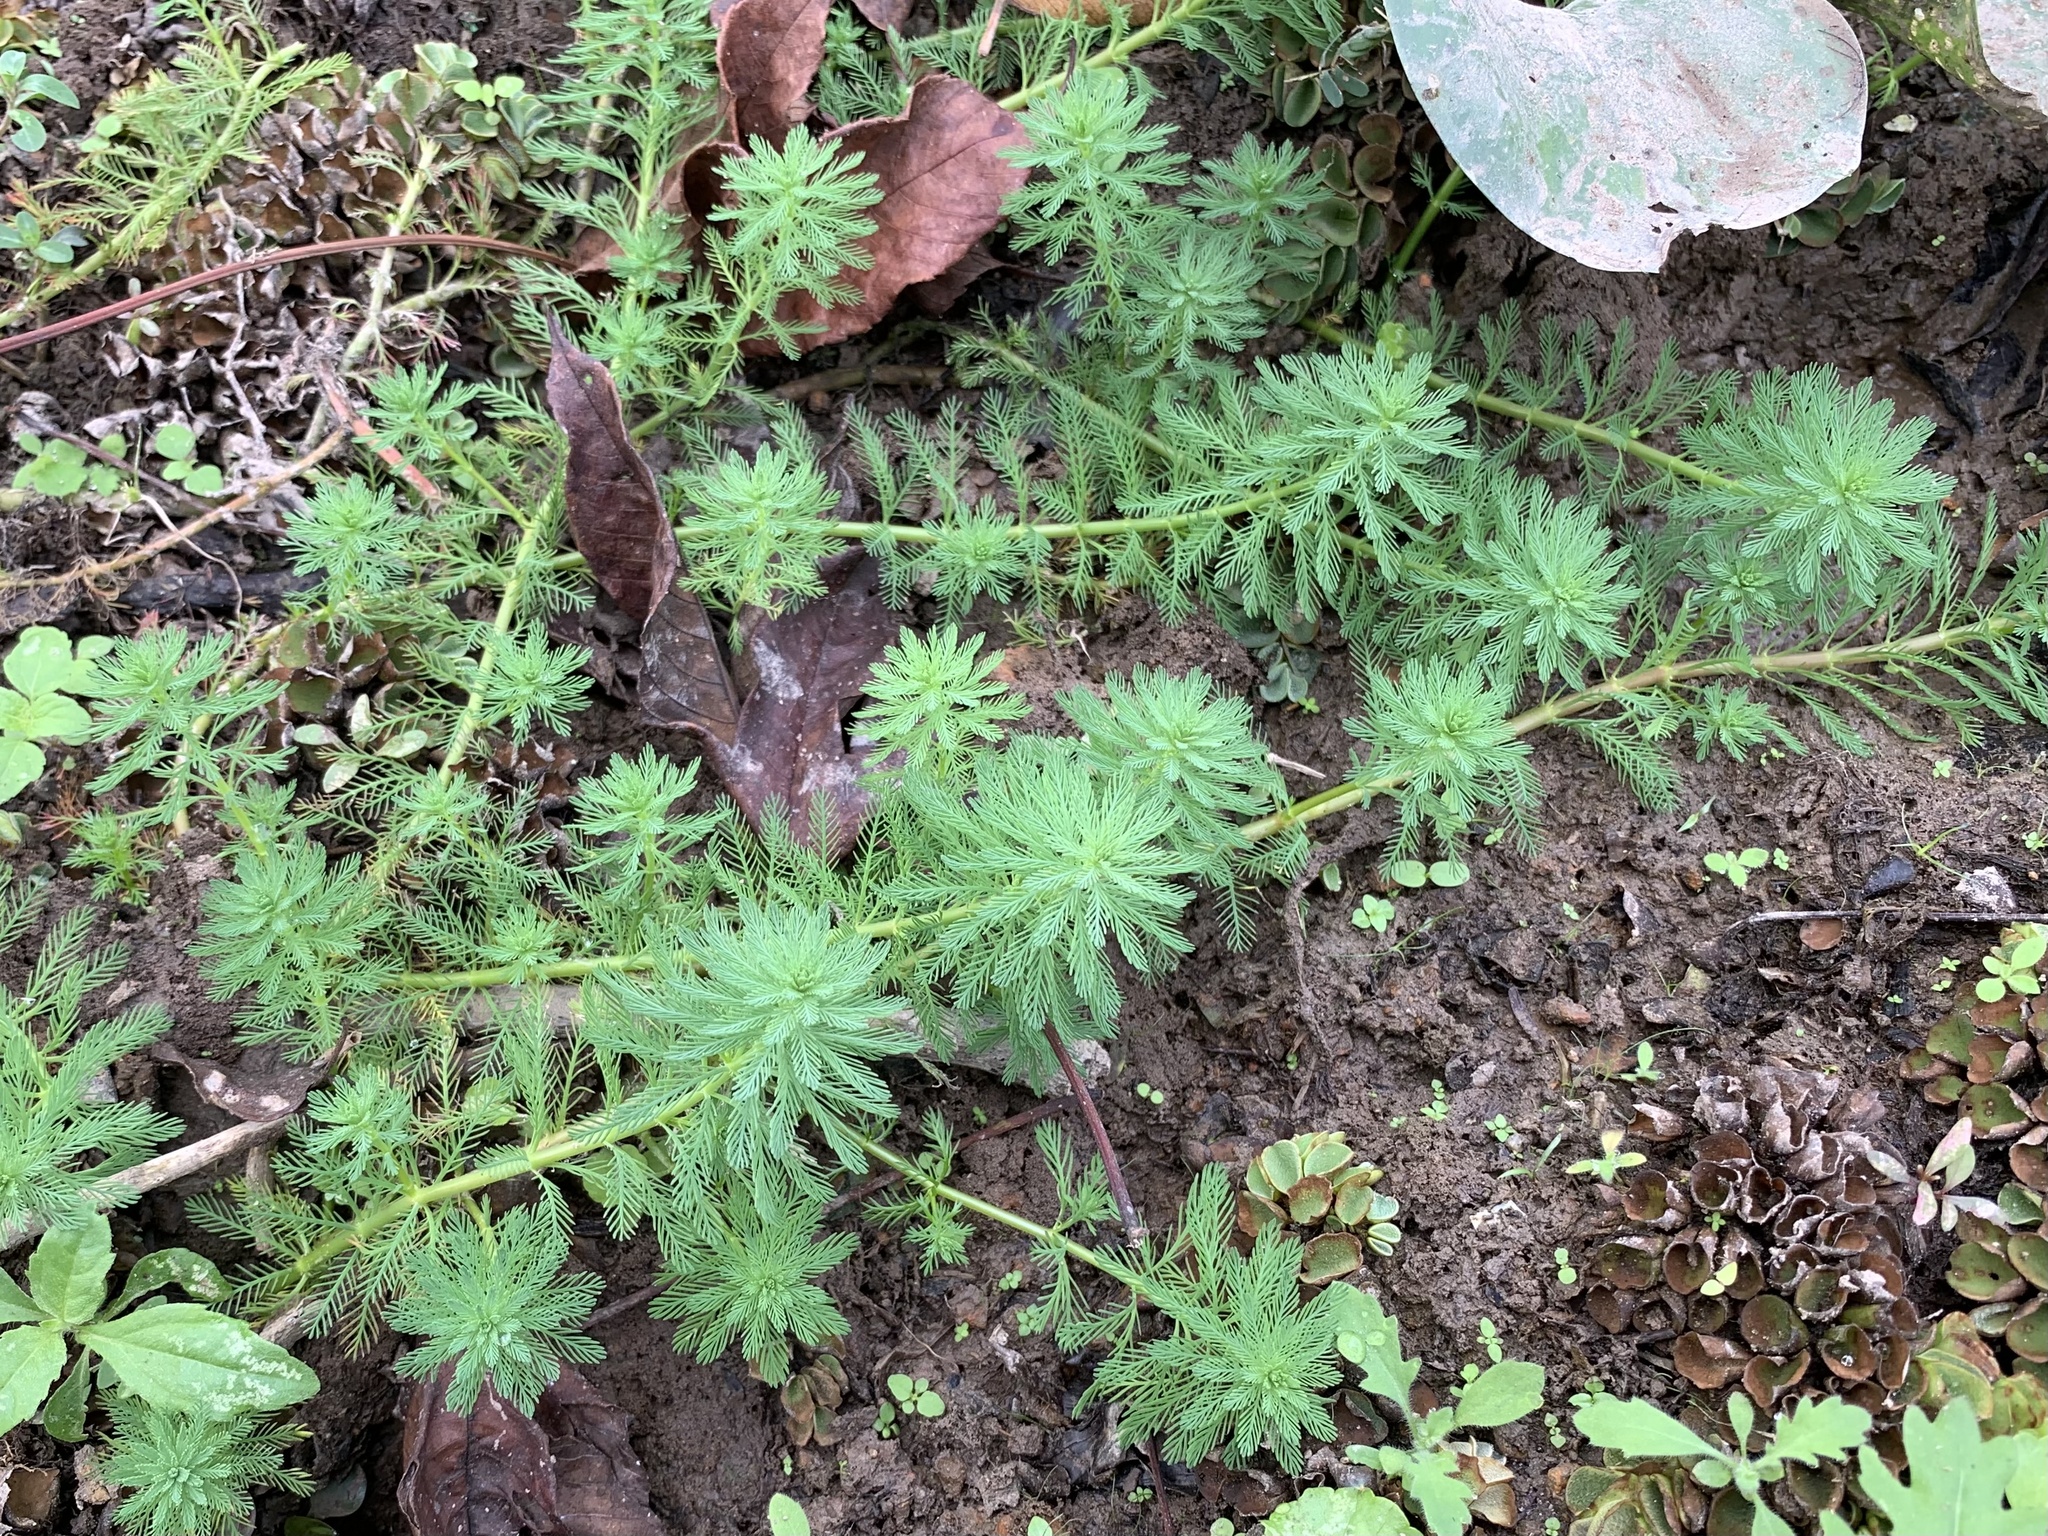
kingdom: Plantae
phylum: Tracheophyta
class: Magnoliopsida
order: Saxifragales
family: Haloragaceae
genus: Myriophyllum
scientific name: Myriophyllum aquaticum
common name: Parrot's feather
